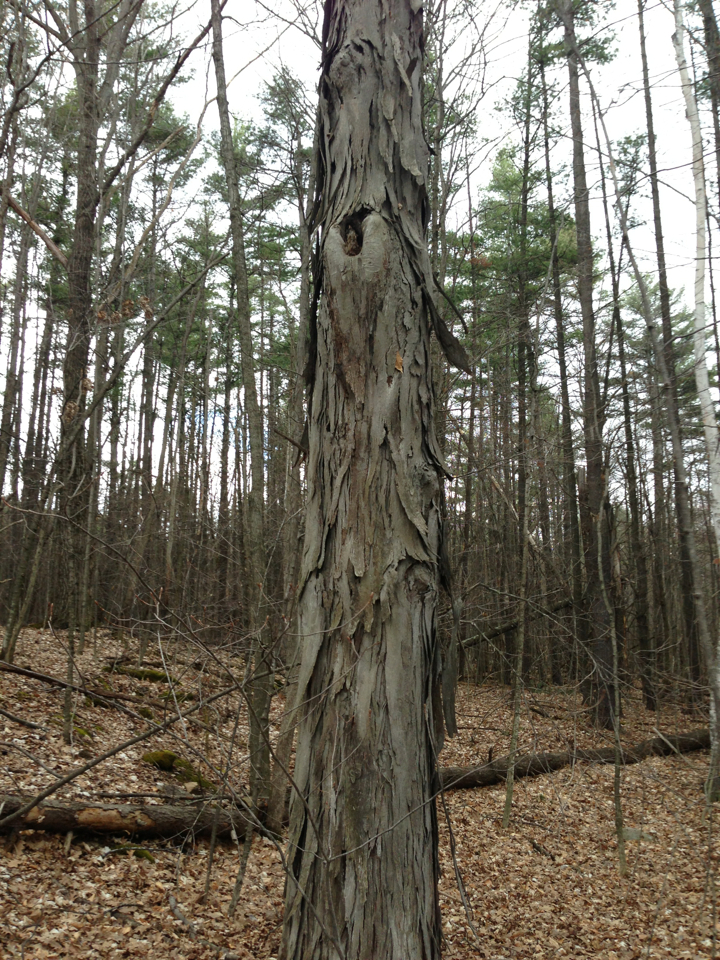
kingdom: Plantae
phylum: Tracheophyta
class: Magnoliopsida
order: Fagales
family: Juglandaceae
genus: Carya
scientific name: Carya ovata
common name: Shagbark hickory
